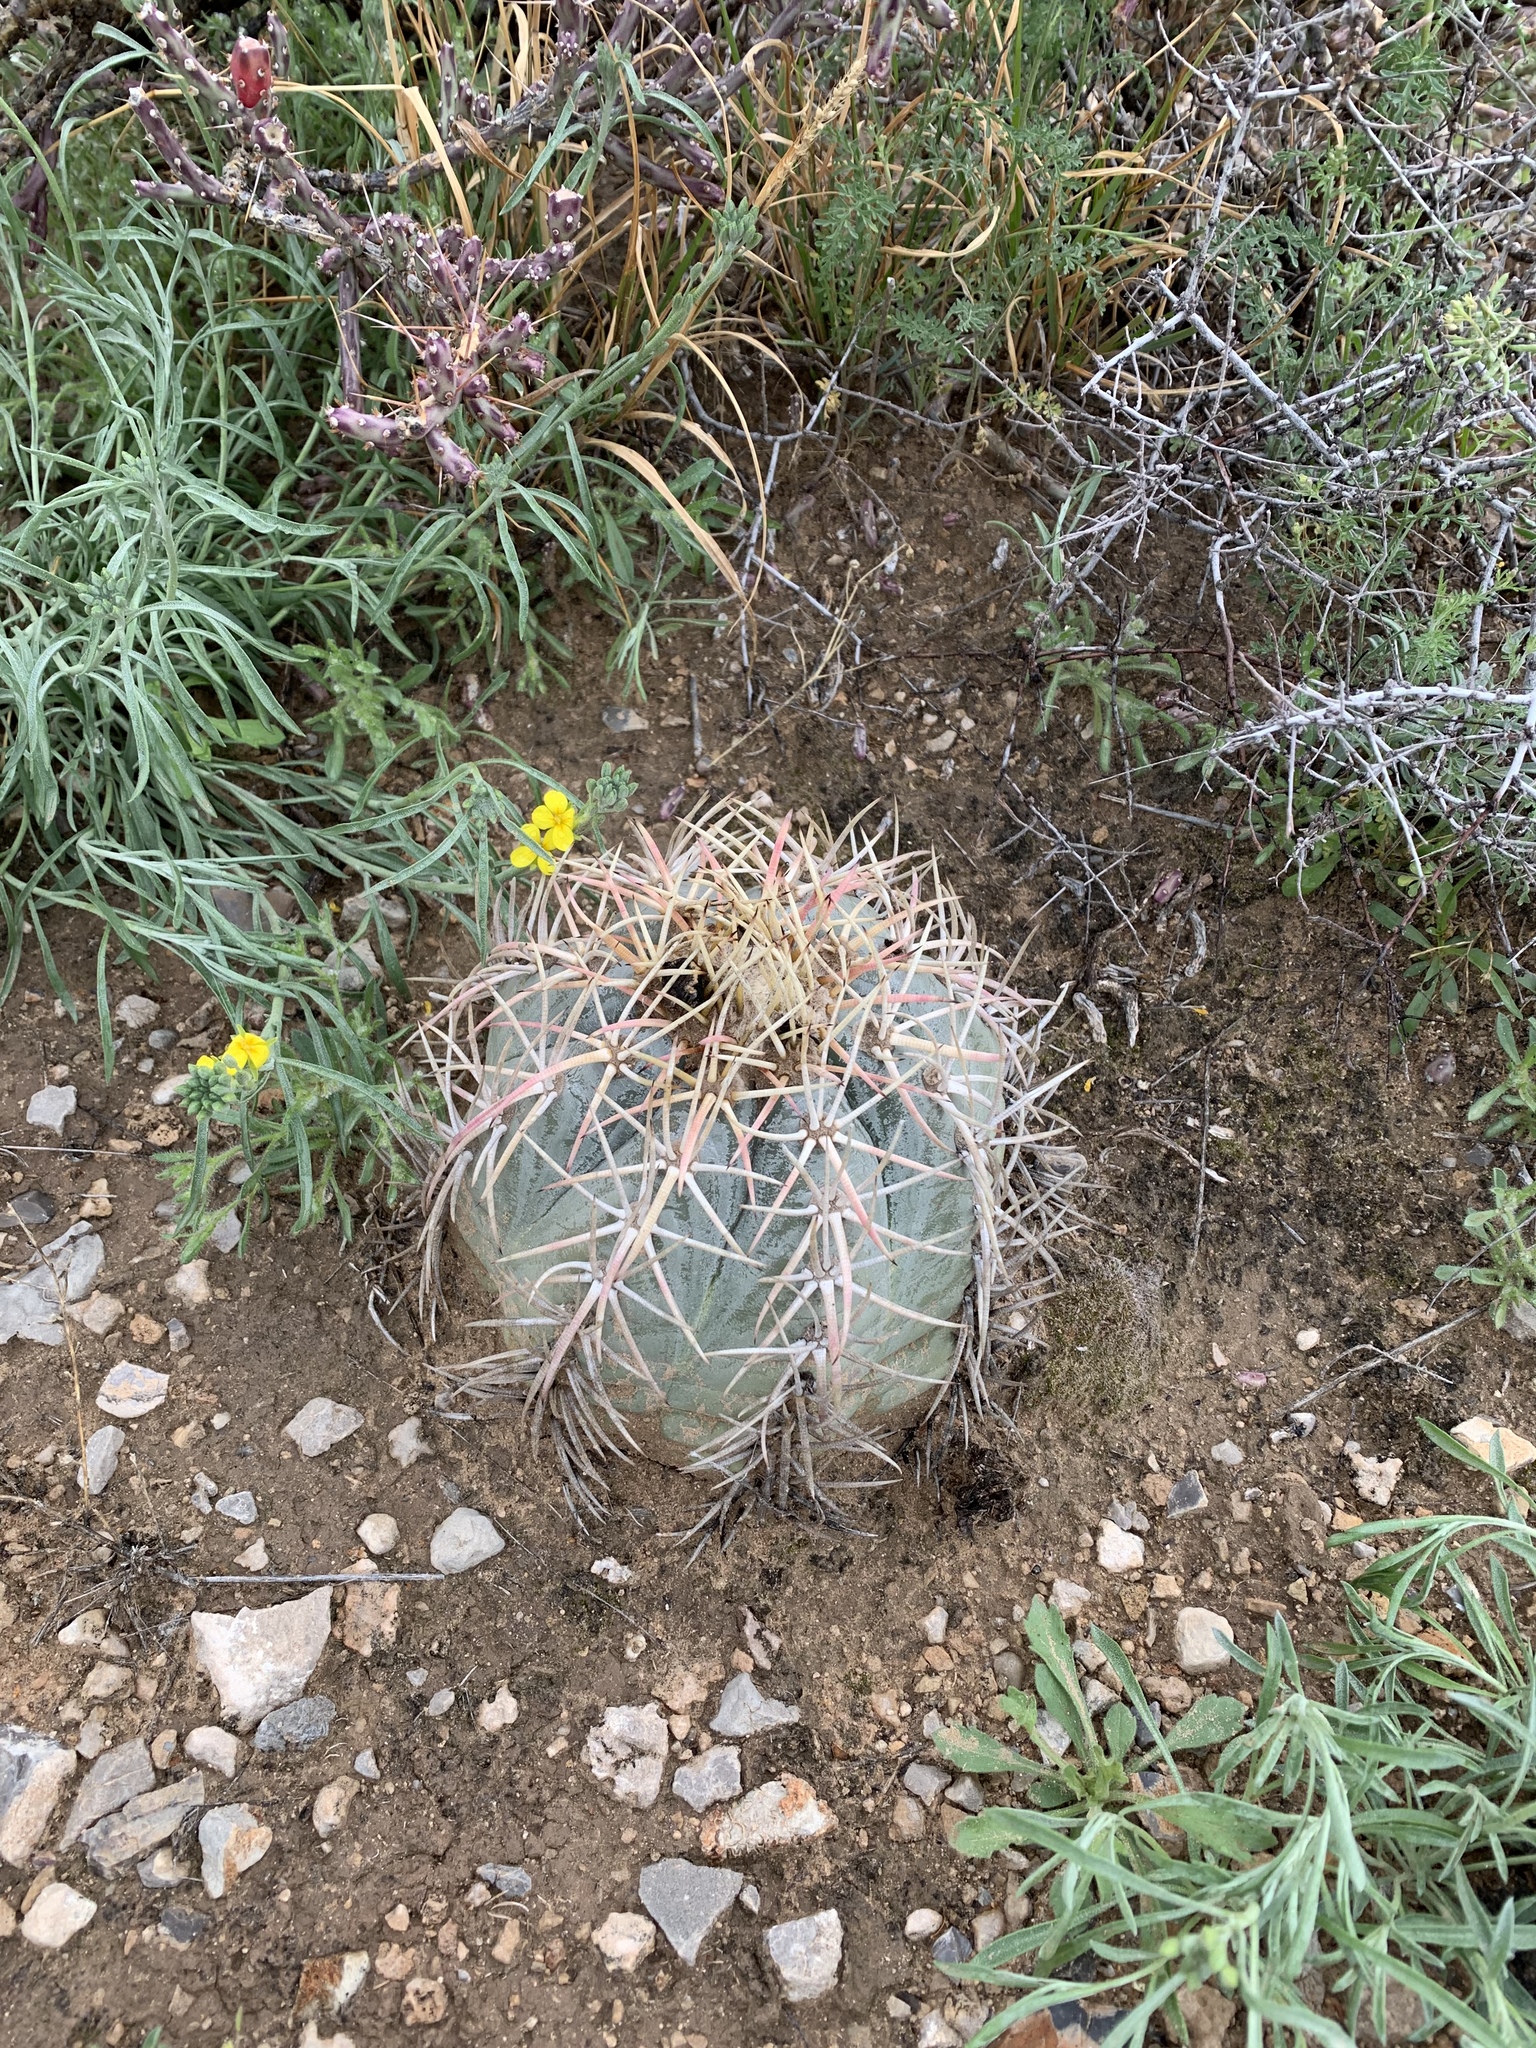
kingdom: Plantae
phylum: Tracheophyta
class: Magnoliopsida
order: Caryophyllales
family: Cactaceae
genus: Echinocactus
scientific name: Echinocactus horizonthalonius
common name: Devilshead
